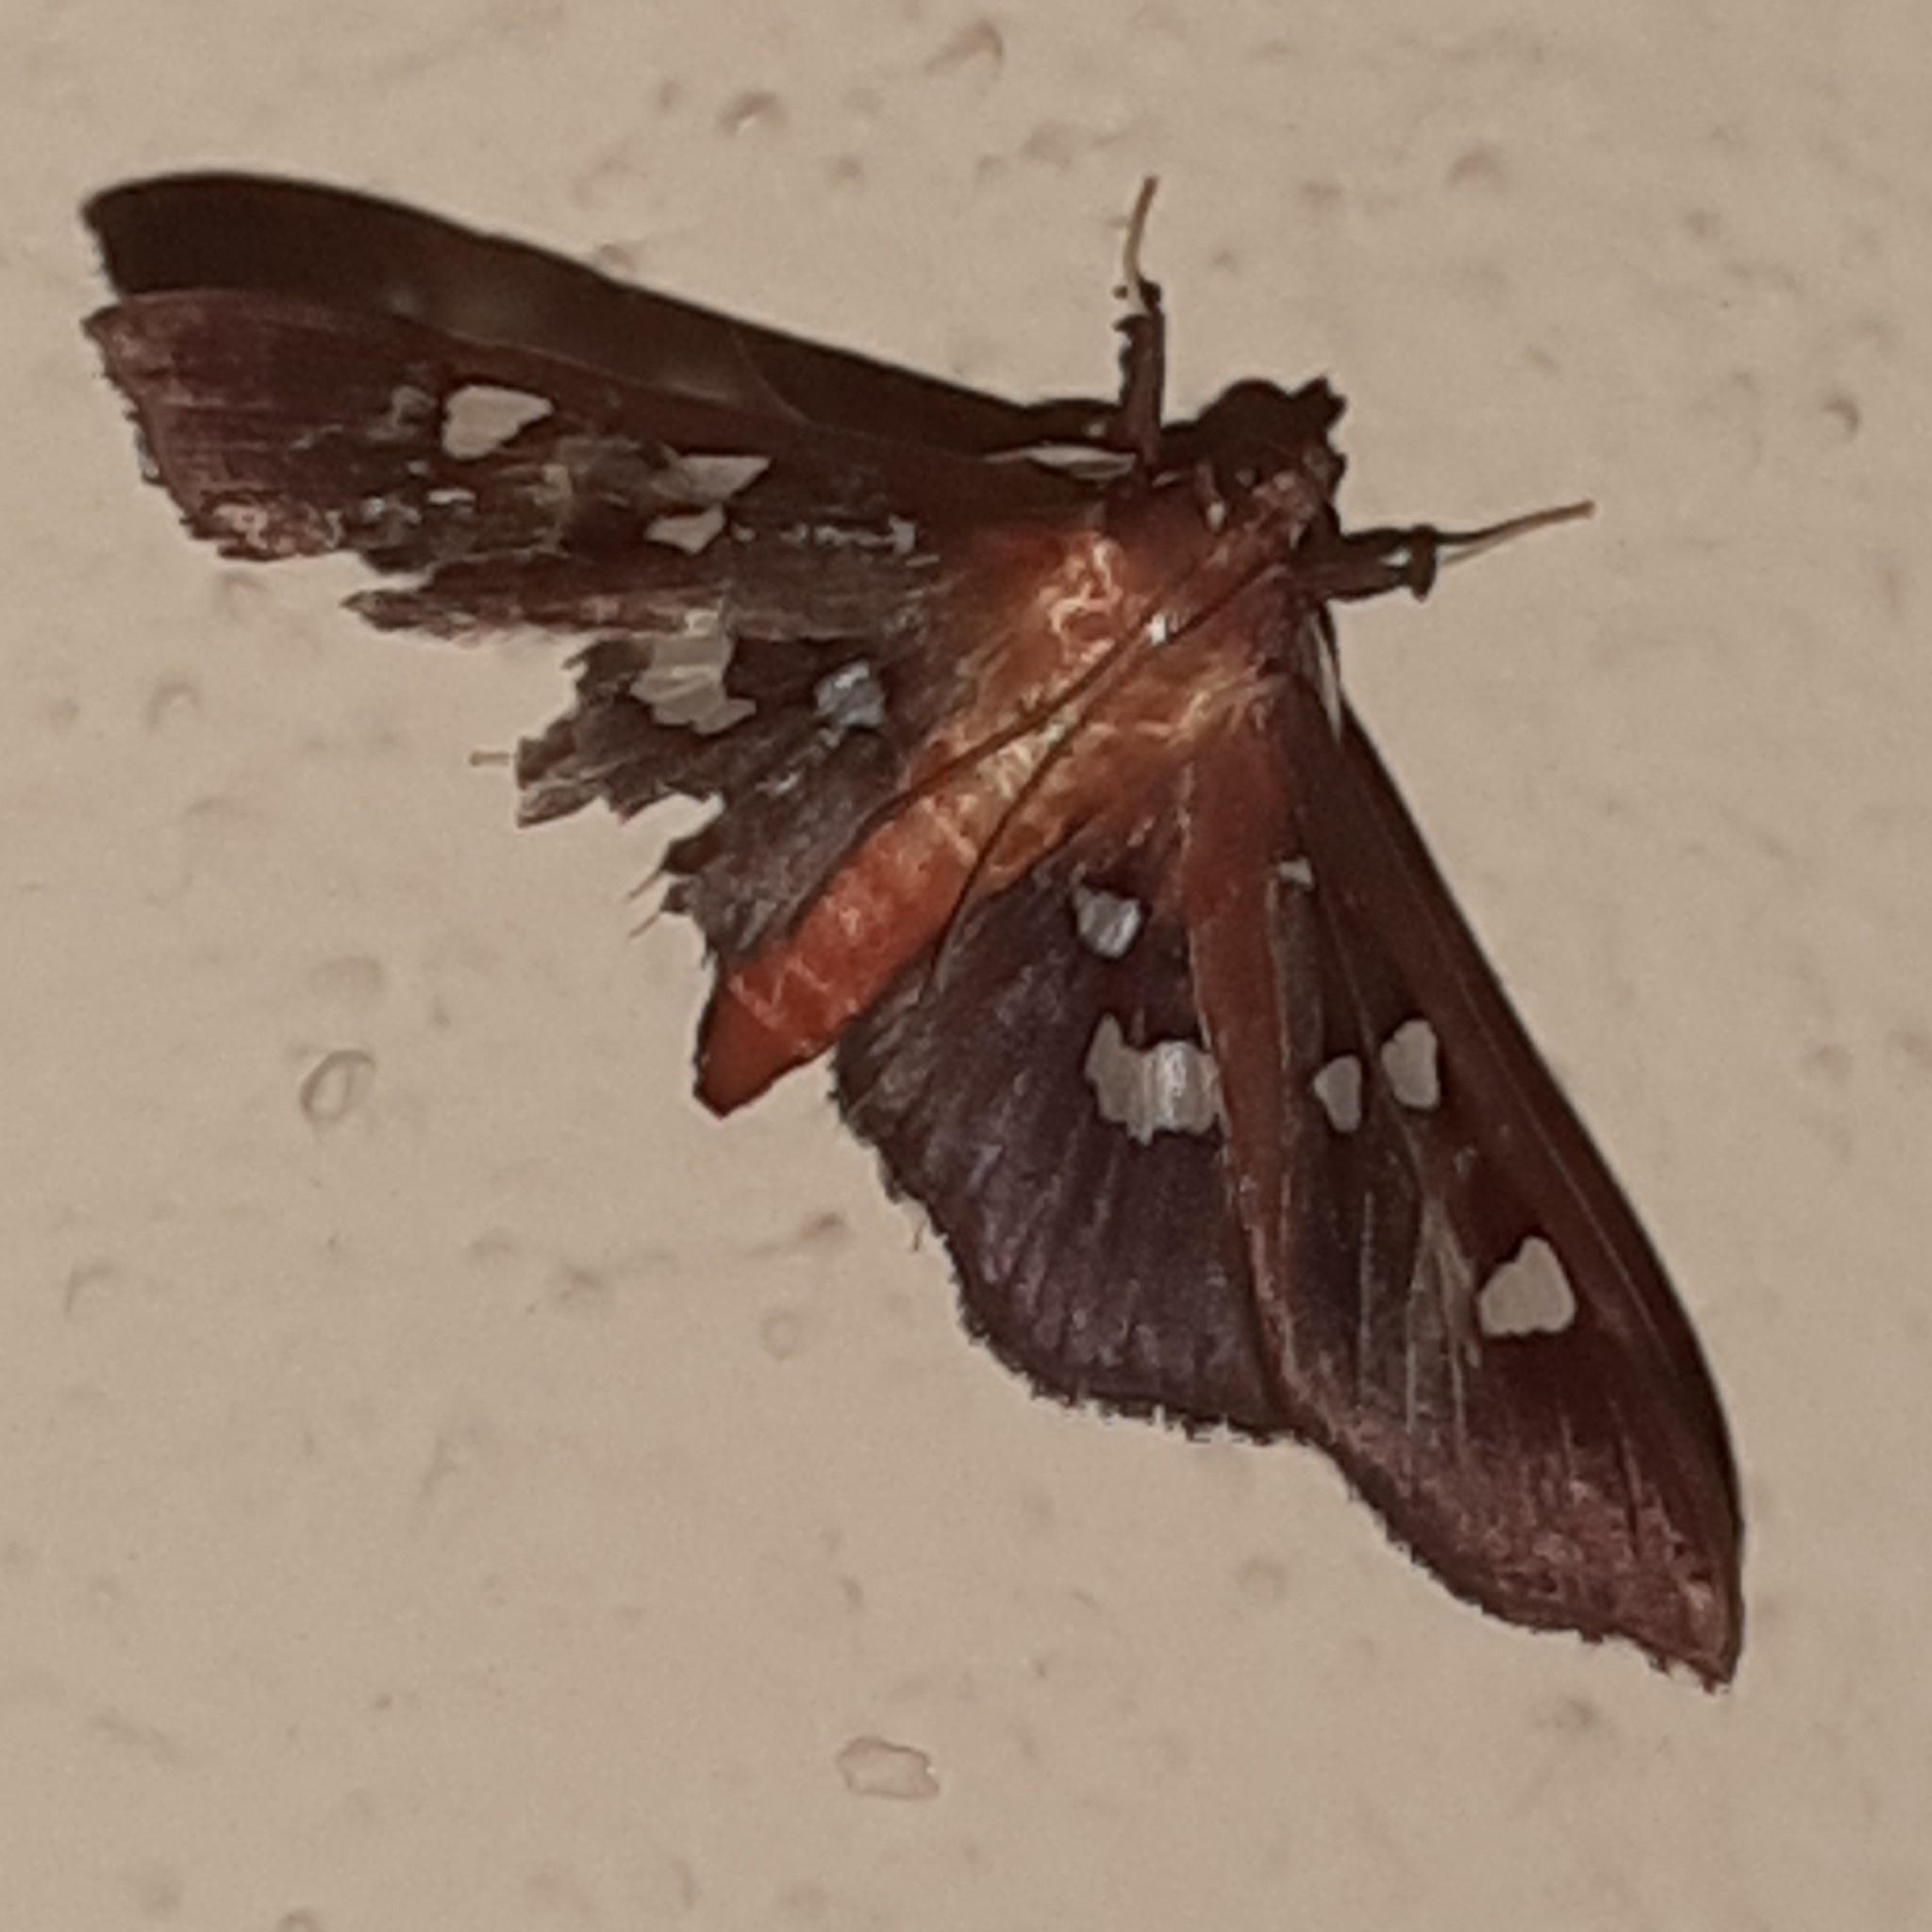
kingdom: Animalia
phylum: Arthropoda
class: Insecta
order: Lepidoptera
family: Crambidae
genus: Phostria
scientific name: Phostria tedea
